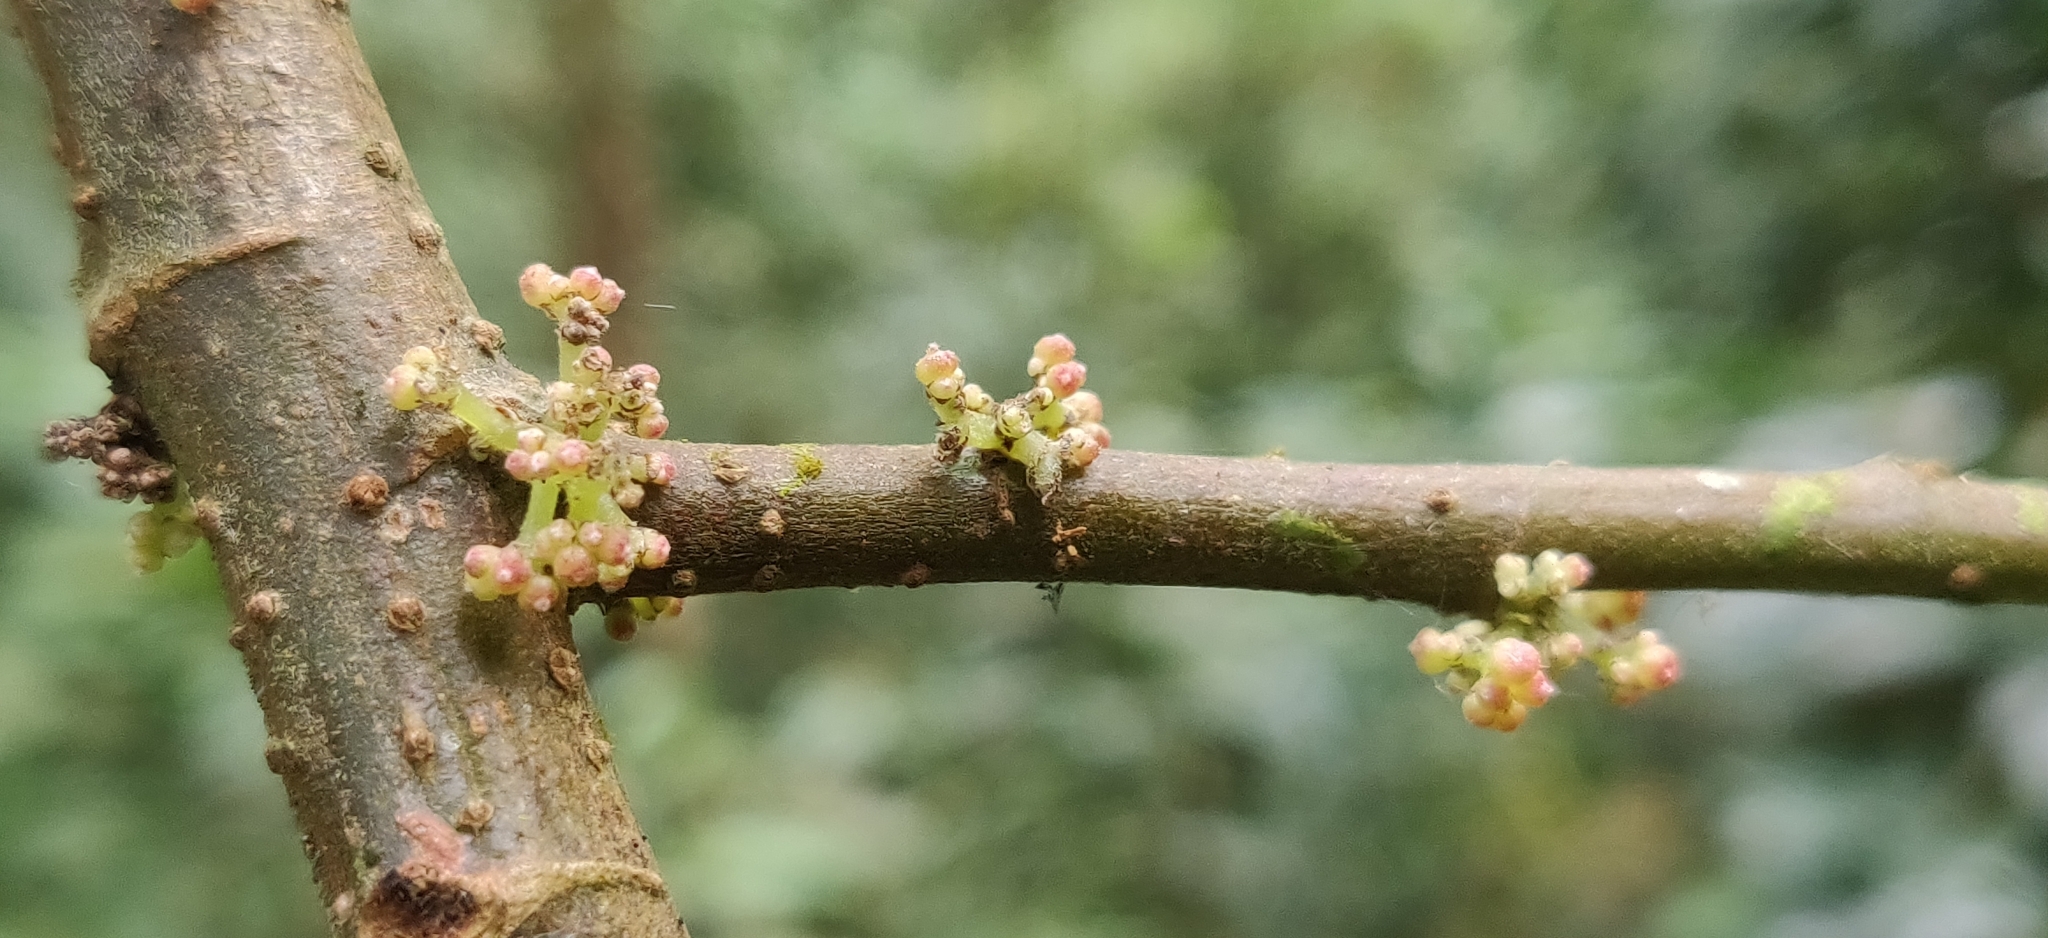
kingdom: Plantae
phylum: Tracheophyta
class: Magnoliopsida
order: Rosales
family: Urticaceae
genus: Oreocnide
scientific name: Oreocnide integrifolia
